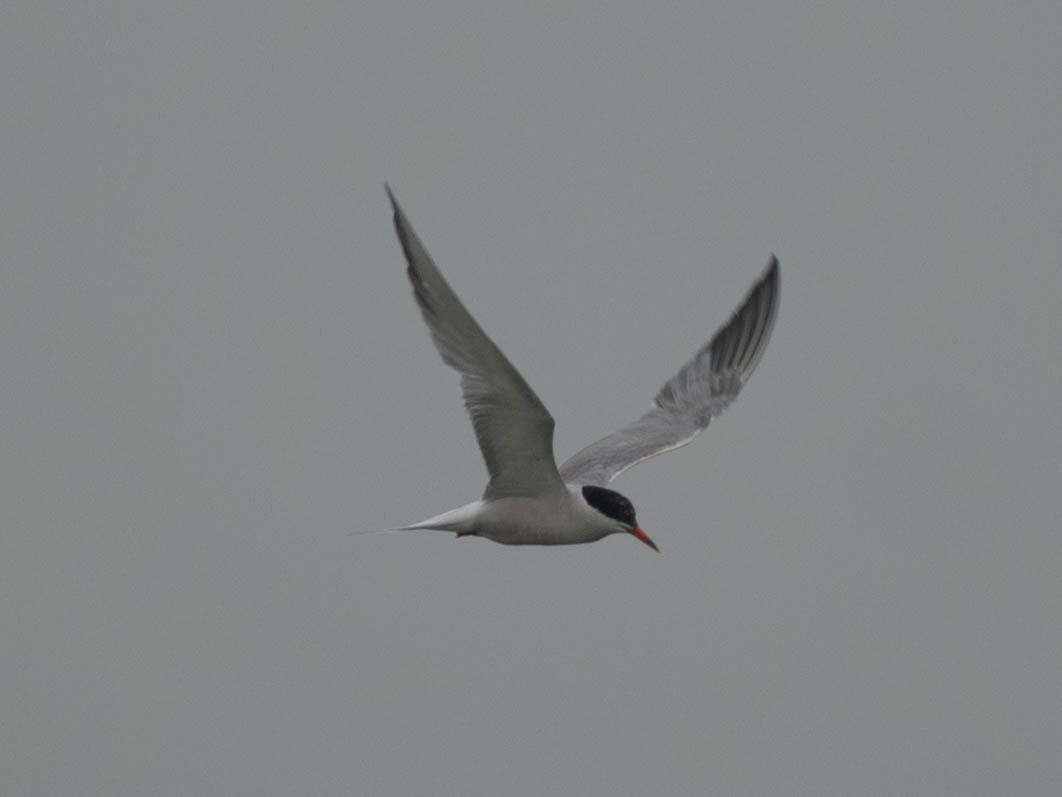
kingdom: Animalia
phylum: Chordata
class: Aves
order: Charadriiformes
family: Laridae
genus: Sterna
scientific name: Sterna hirundo
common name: Common tern
